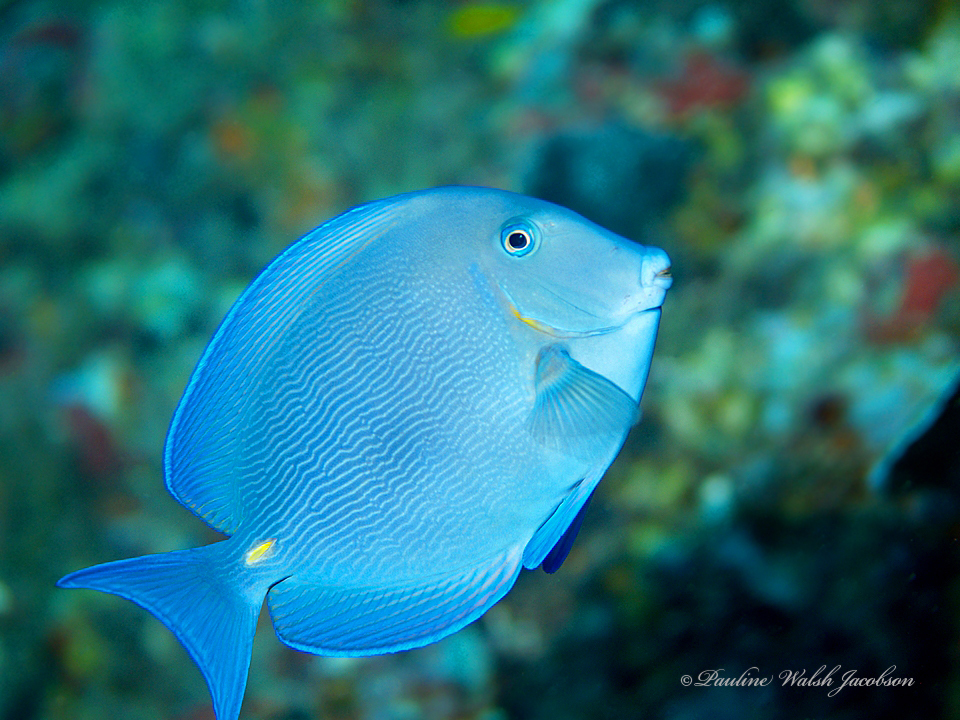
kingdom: Animalia
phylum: Chordata
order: Perciformes
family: Acanthuridae
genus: Acanthurus
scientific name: Acanthurus coeruleus
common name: Blue tang
